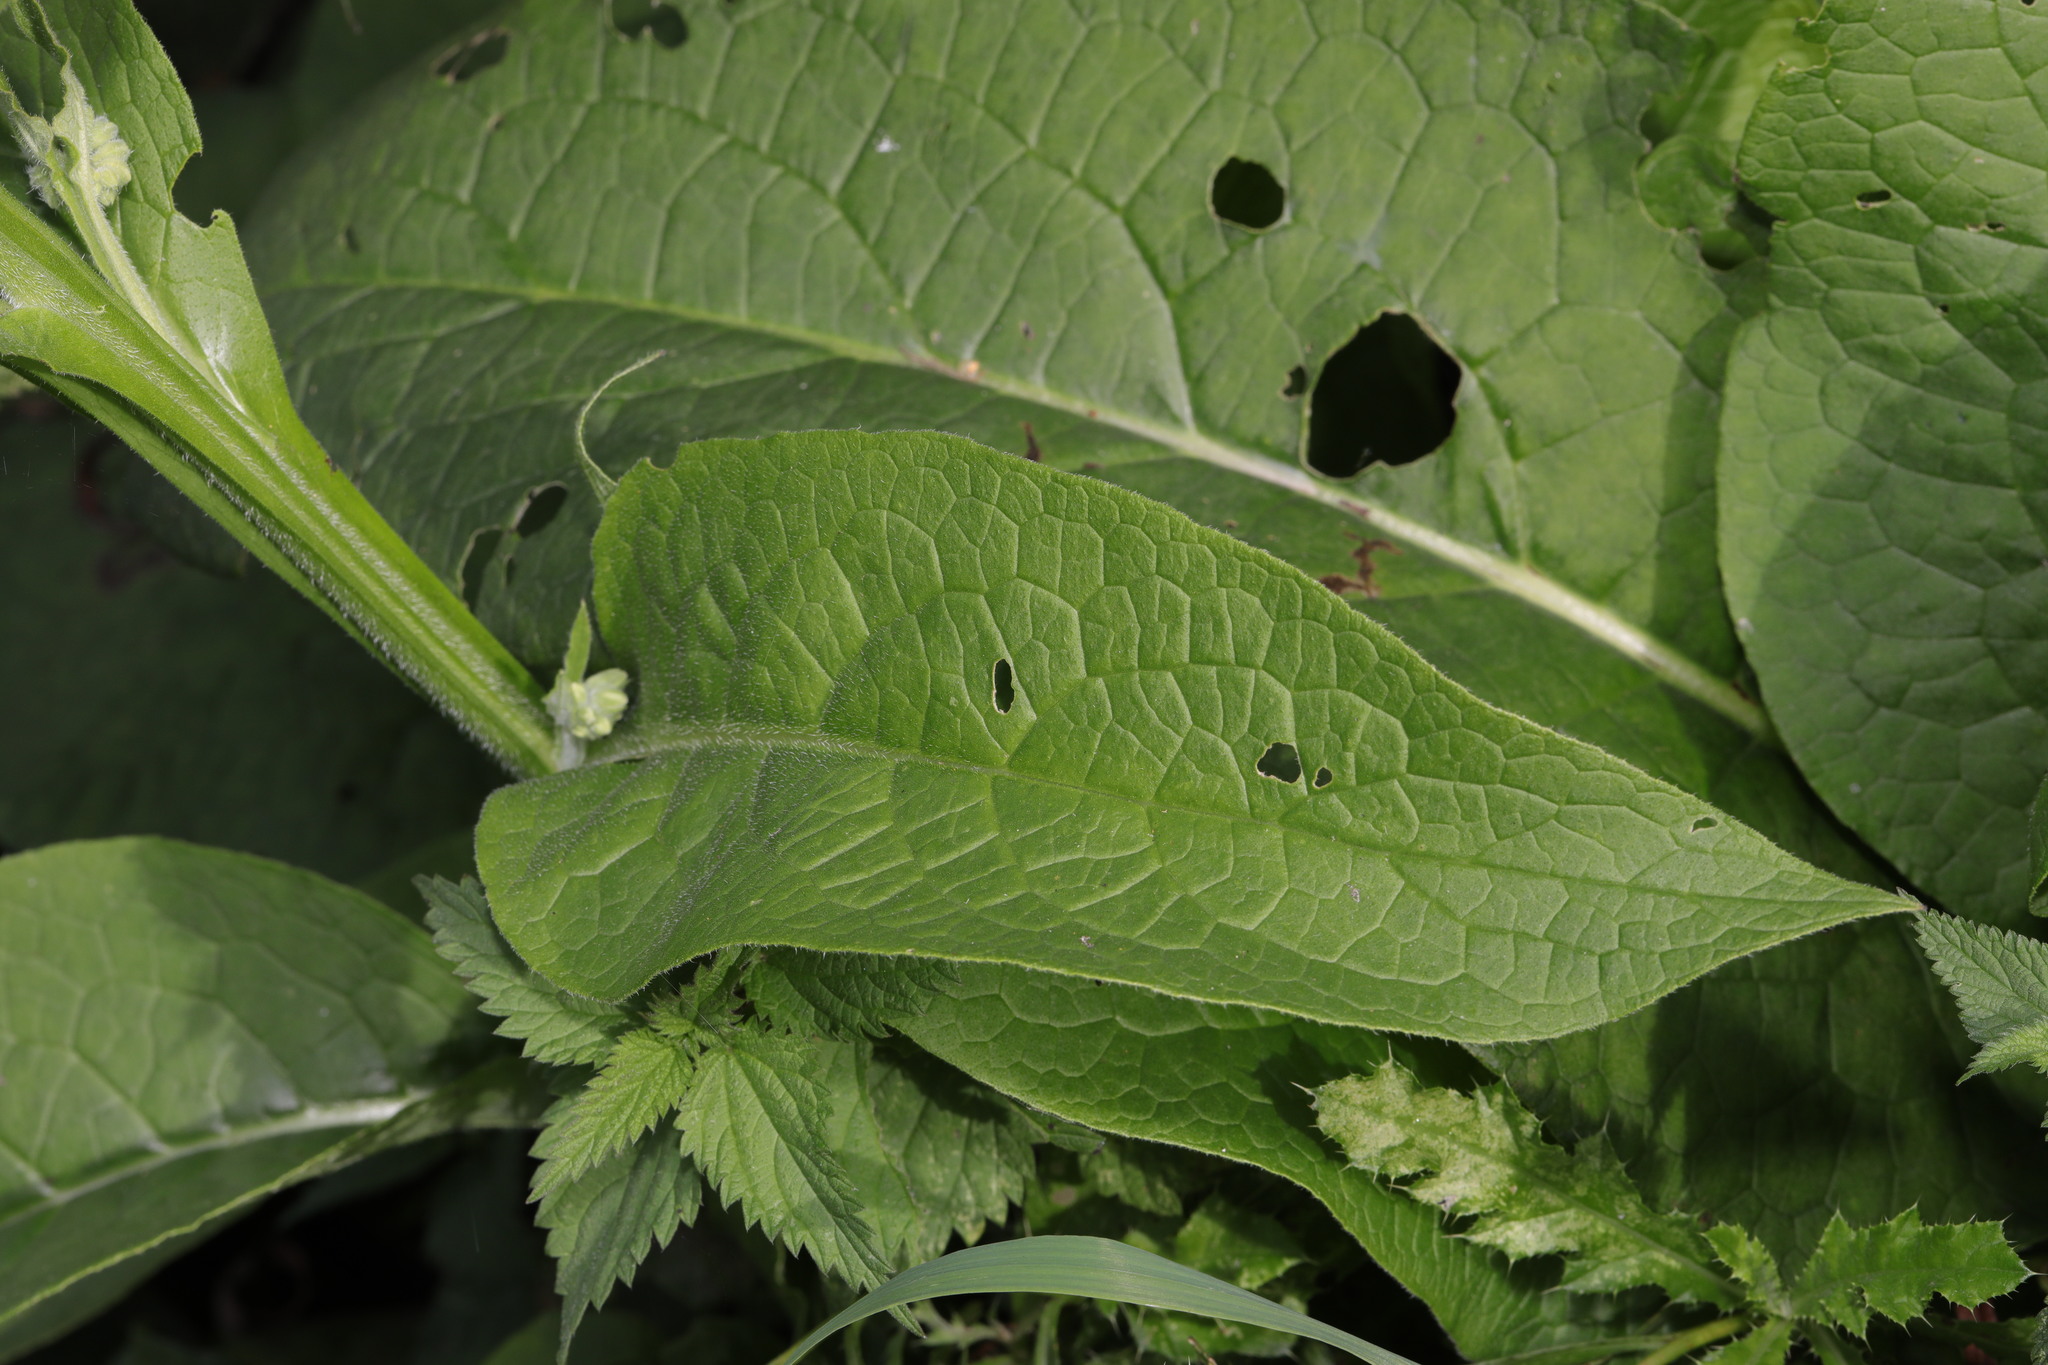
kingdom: Plantae
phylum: Tracheophyta
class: Magnoliopsida
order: Boraginales
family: Boraginaceae
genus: Symphytum
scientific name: Symphytum officinale
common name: Common comfrey
